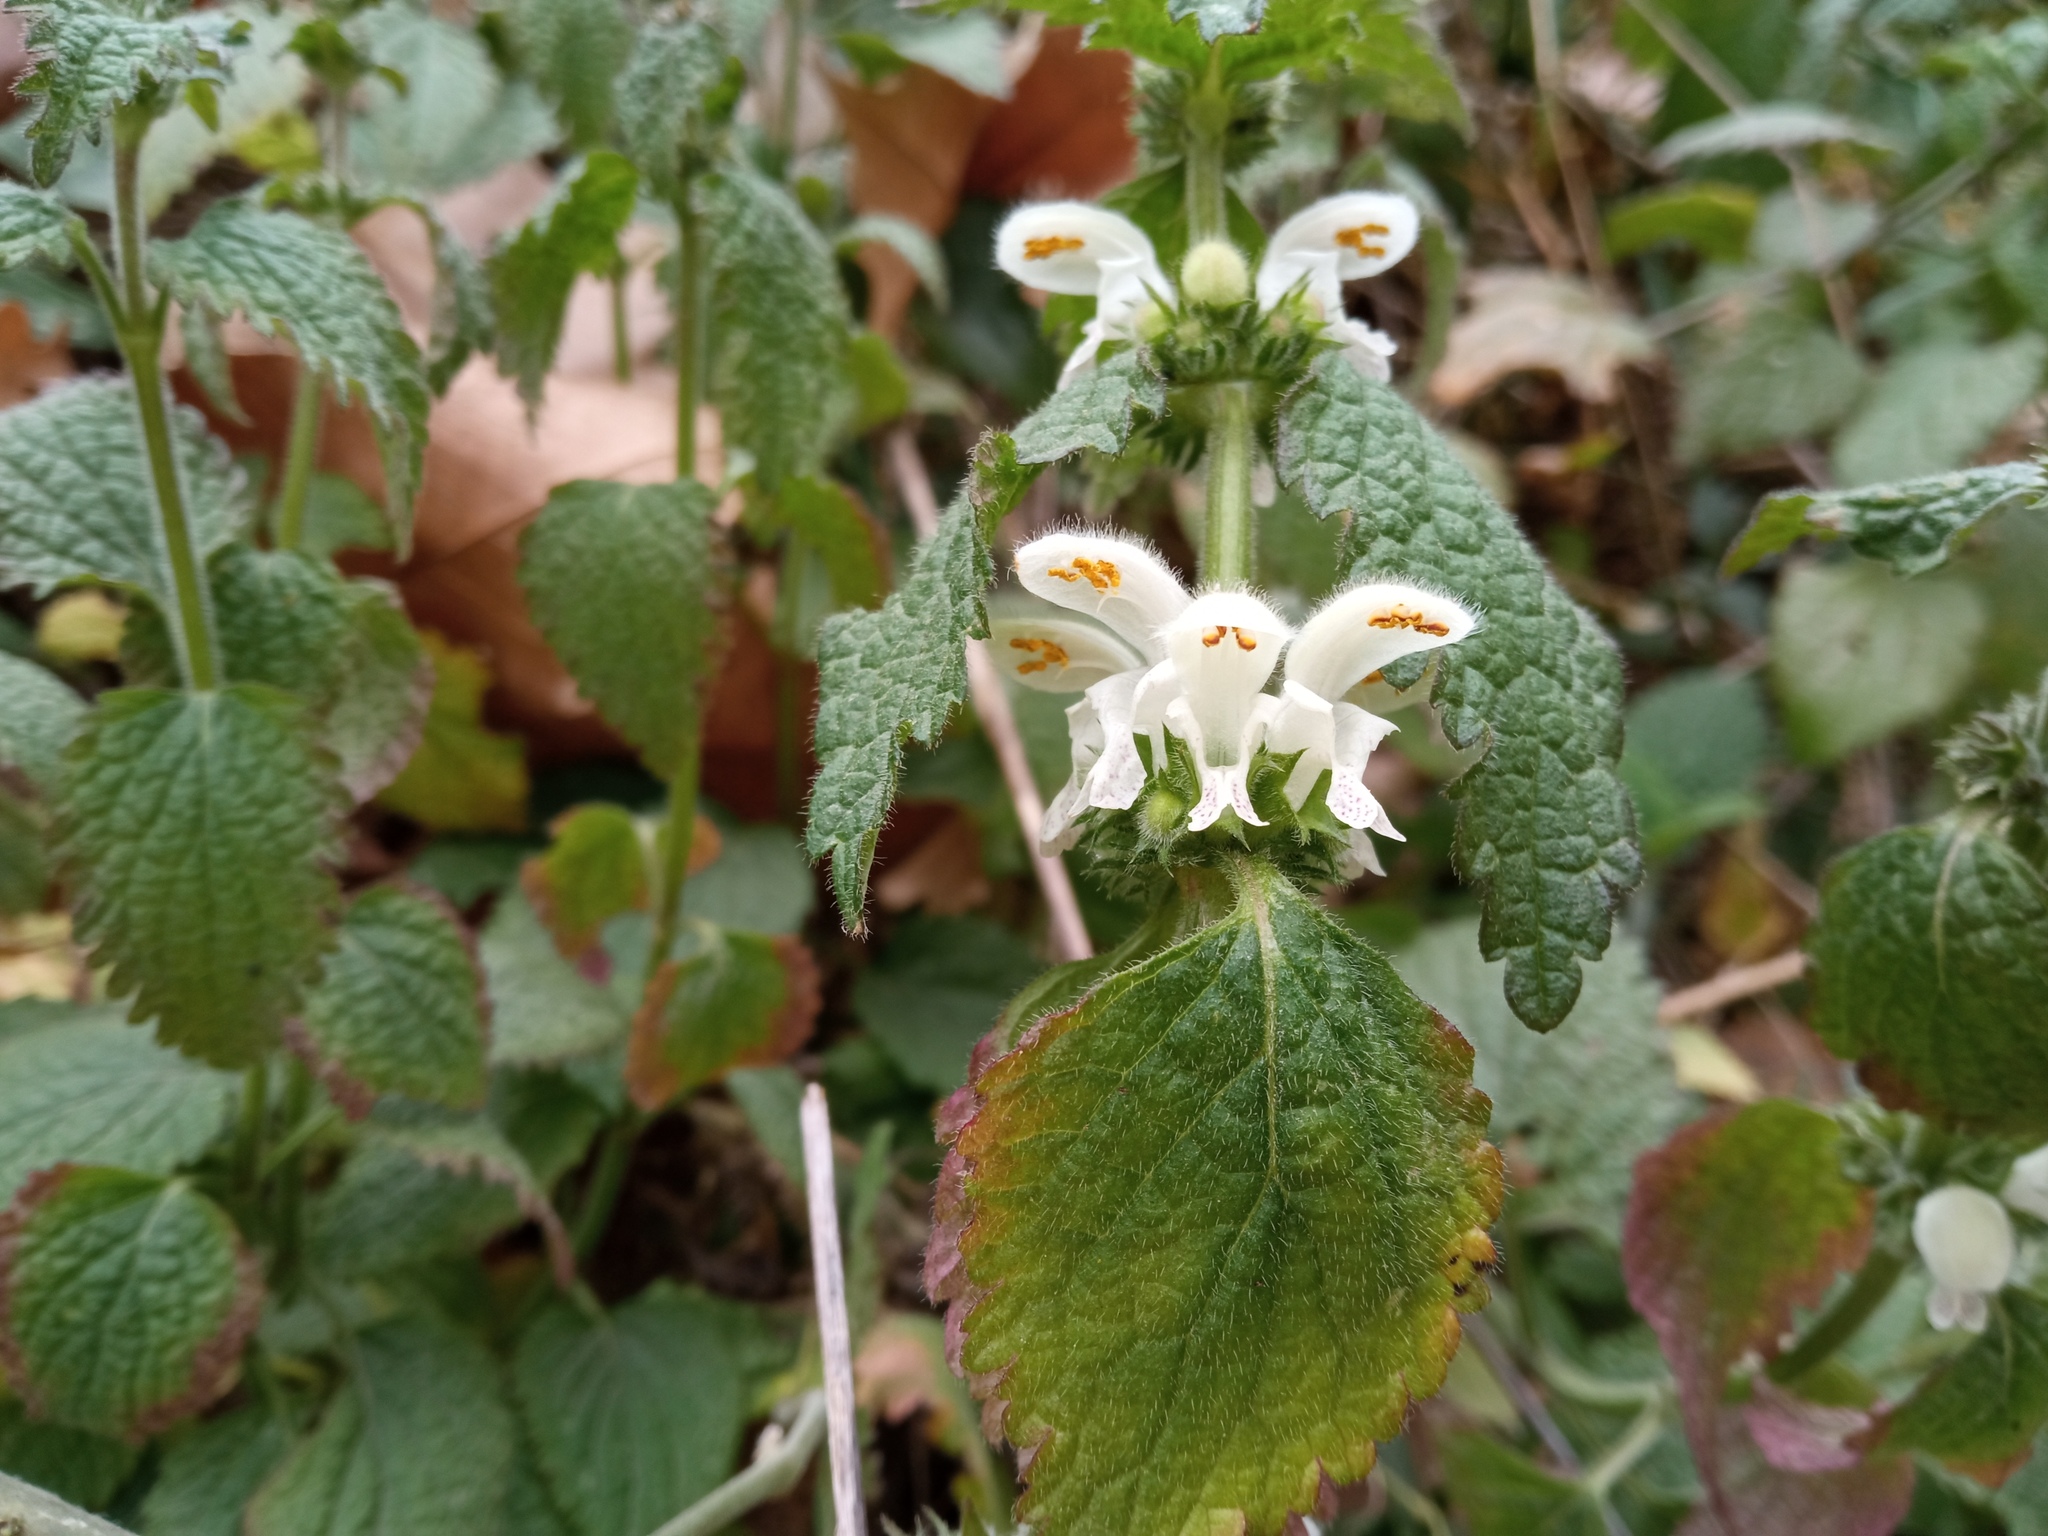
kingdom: Plantae
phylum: Tracheophyta
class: Magnoliopsida
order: Lamiales
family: Lamiaceae
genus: Lamium
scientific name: Lamium flexuosum
